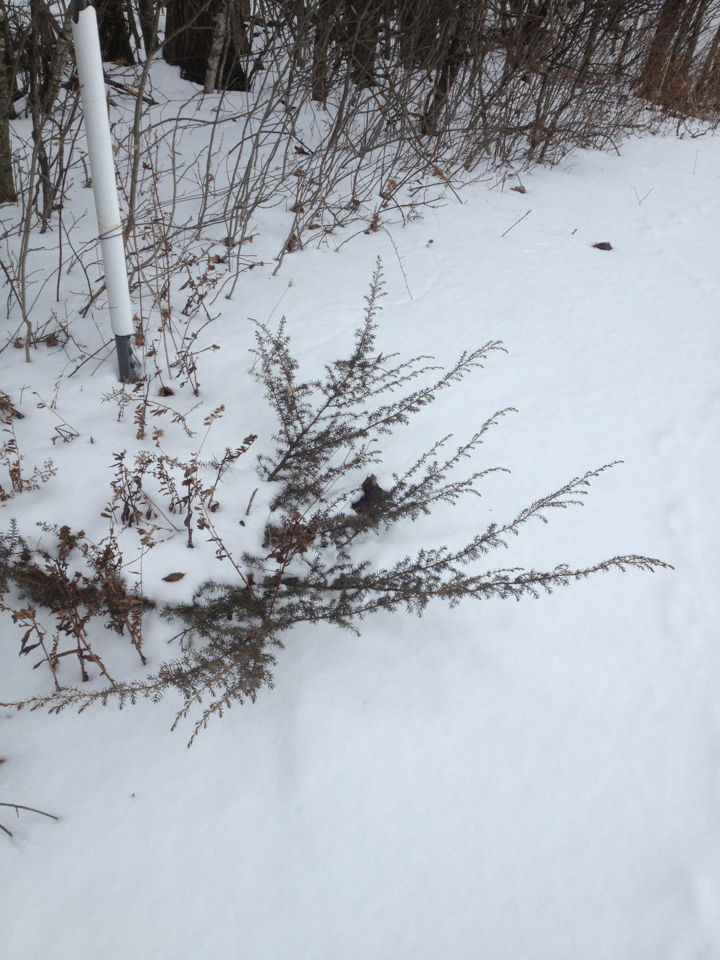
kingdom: Plantae
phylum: Tracheophyta
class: Pinopsida
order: Pinales
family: Cupressaceae
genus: Juniperus
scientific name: Juniperus communis
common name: Common juniper
